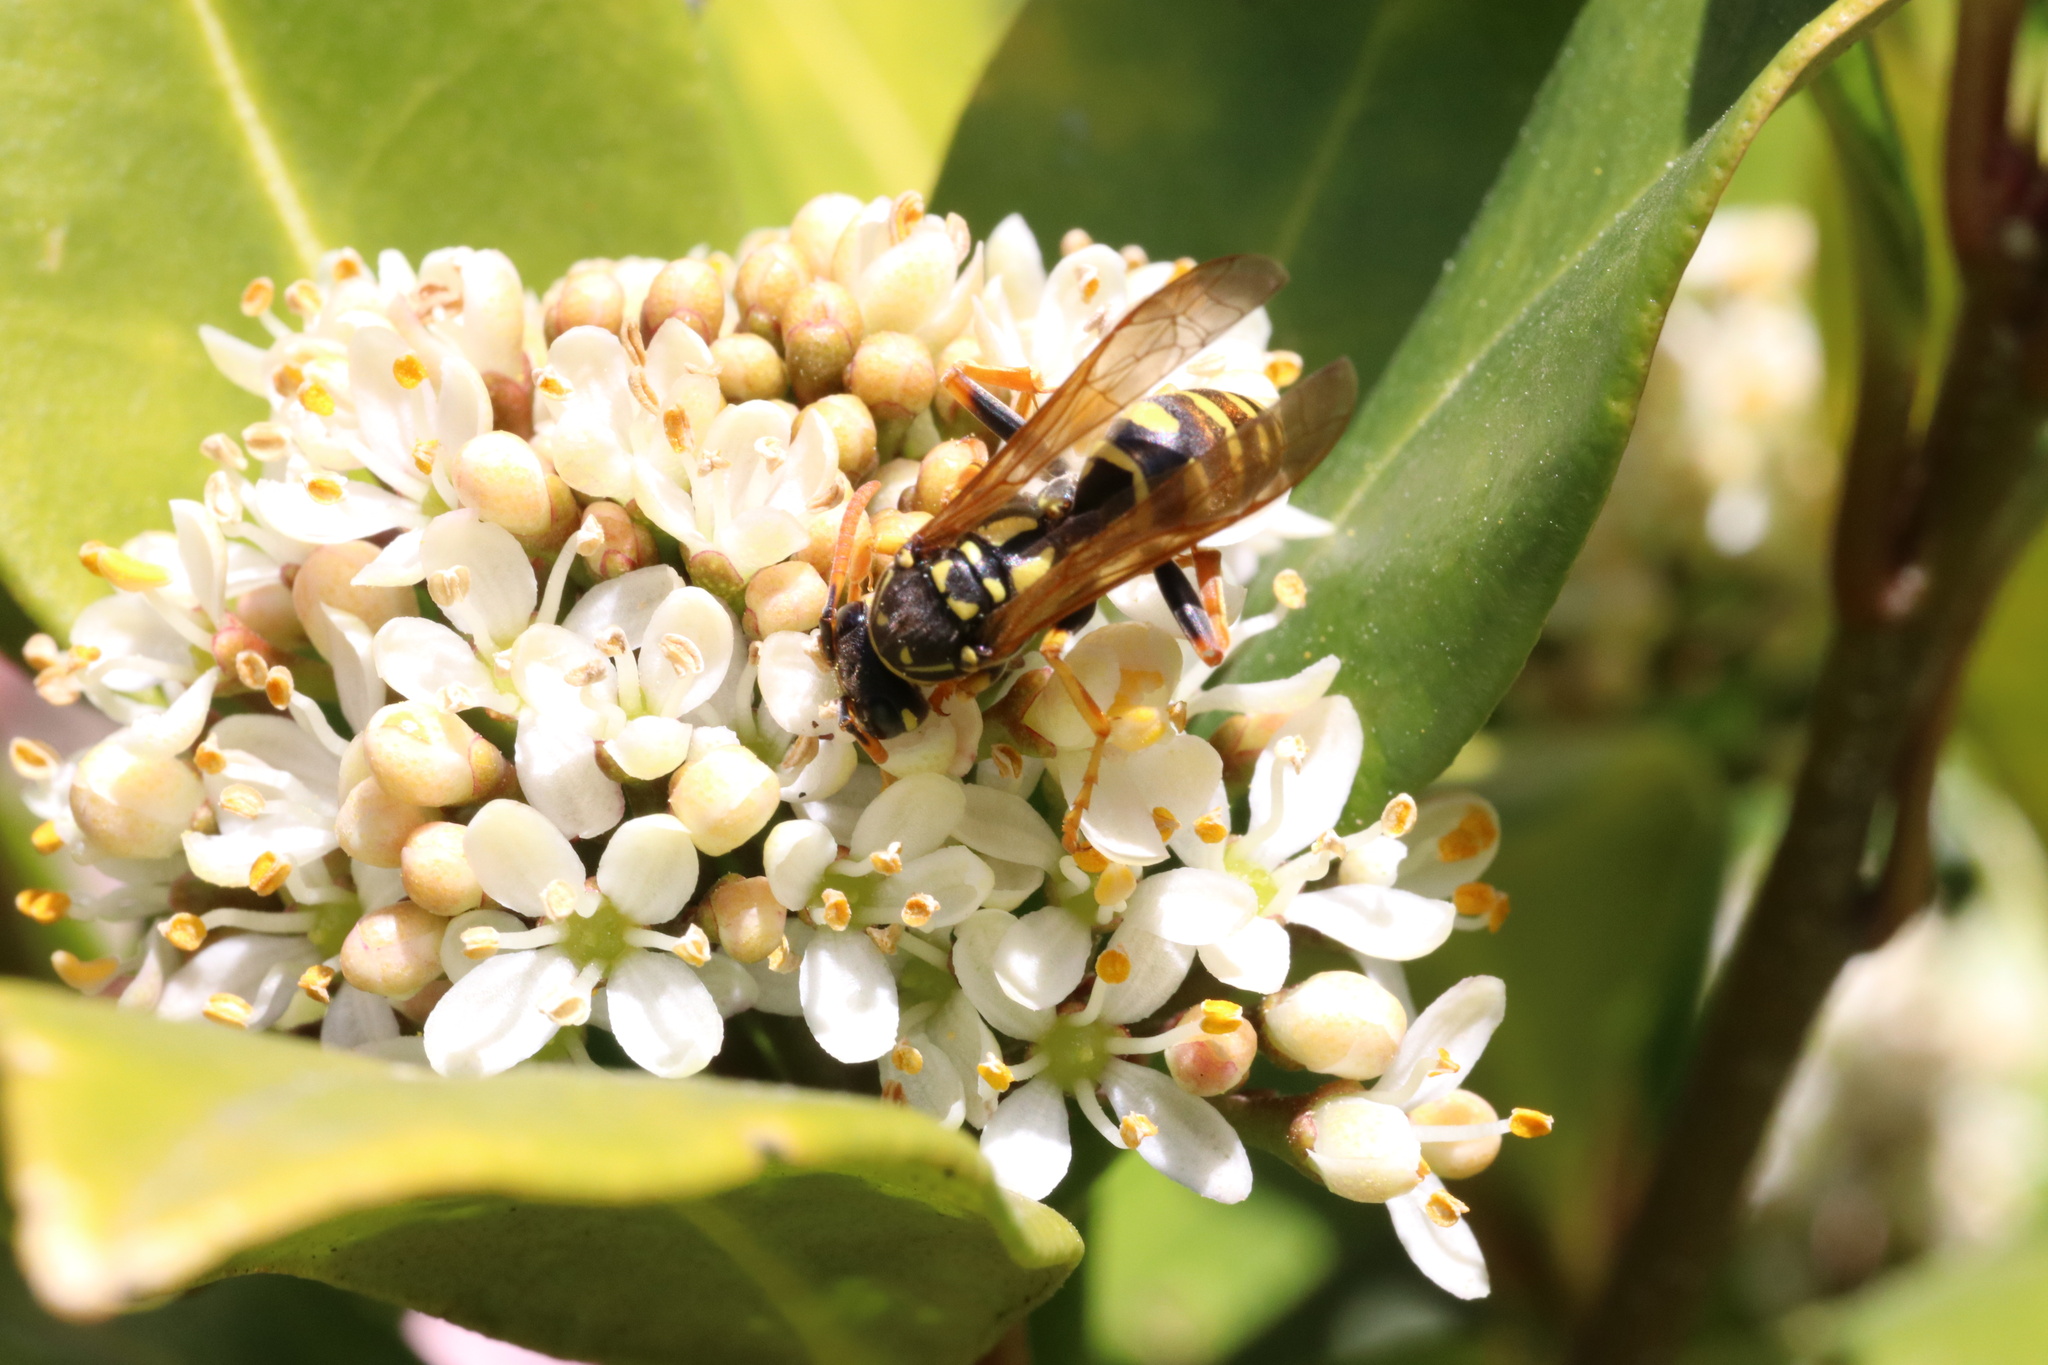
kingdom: Animalia
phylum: Arthropoda
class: Insecta
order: Hymenoptera
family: Eumenidae
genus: Polistes
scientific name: Polistes dominula
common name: Paper wasp
